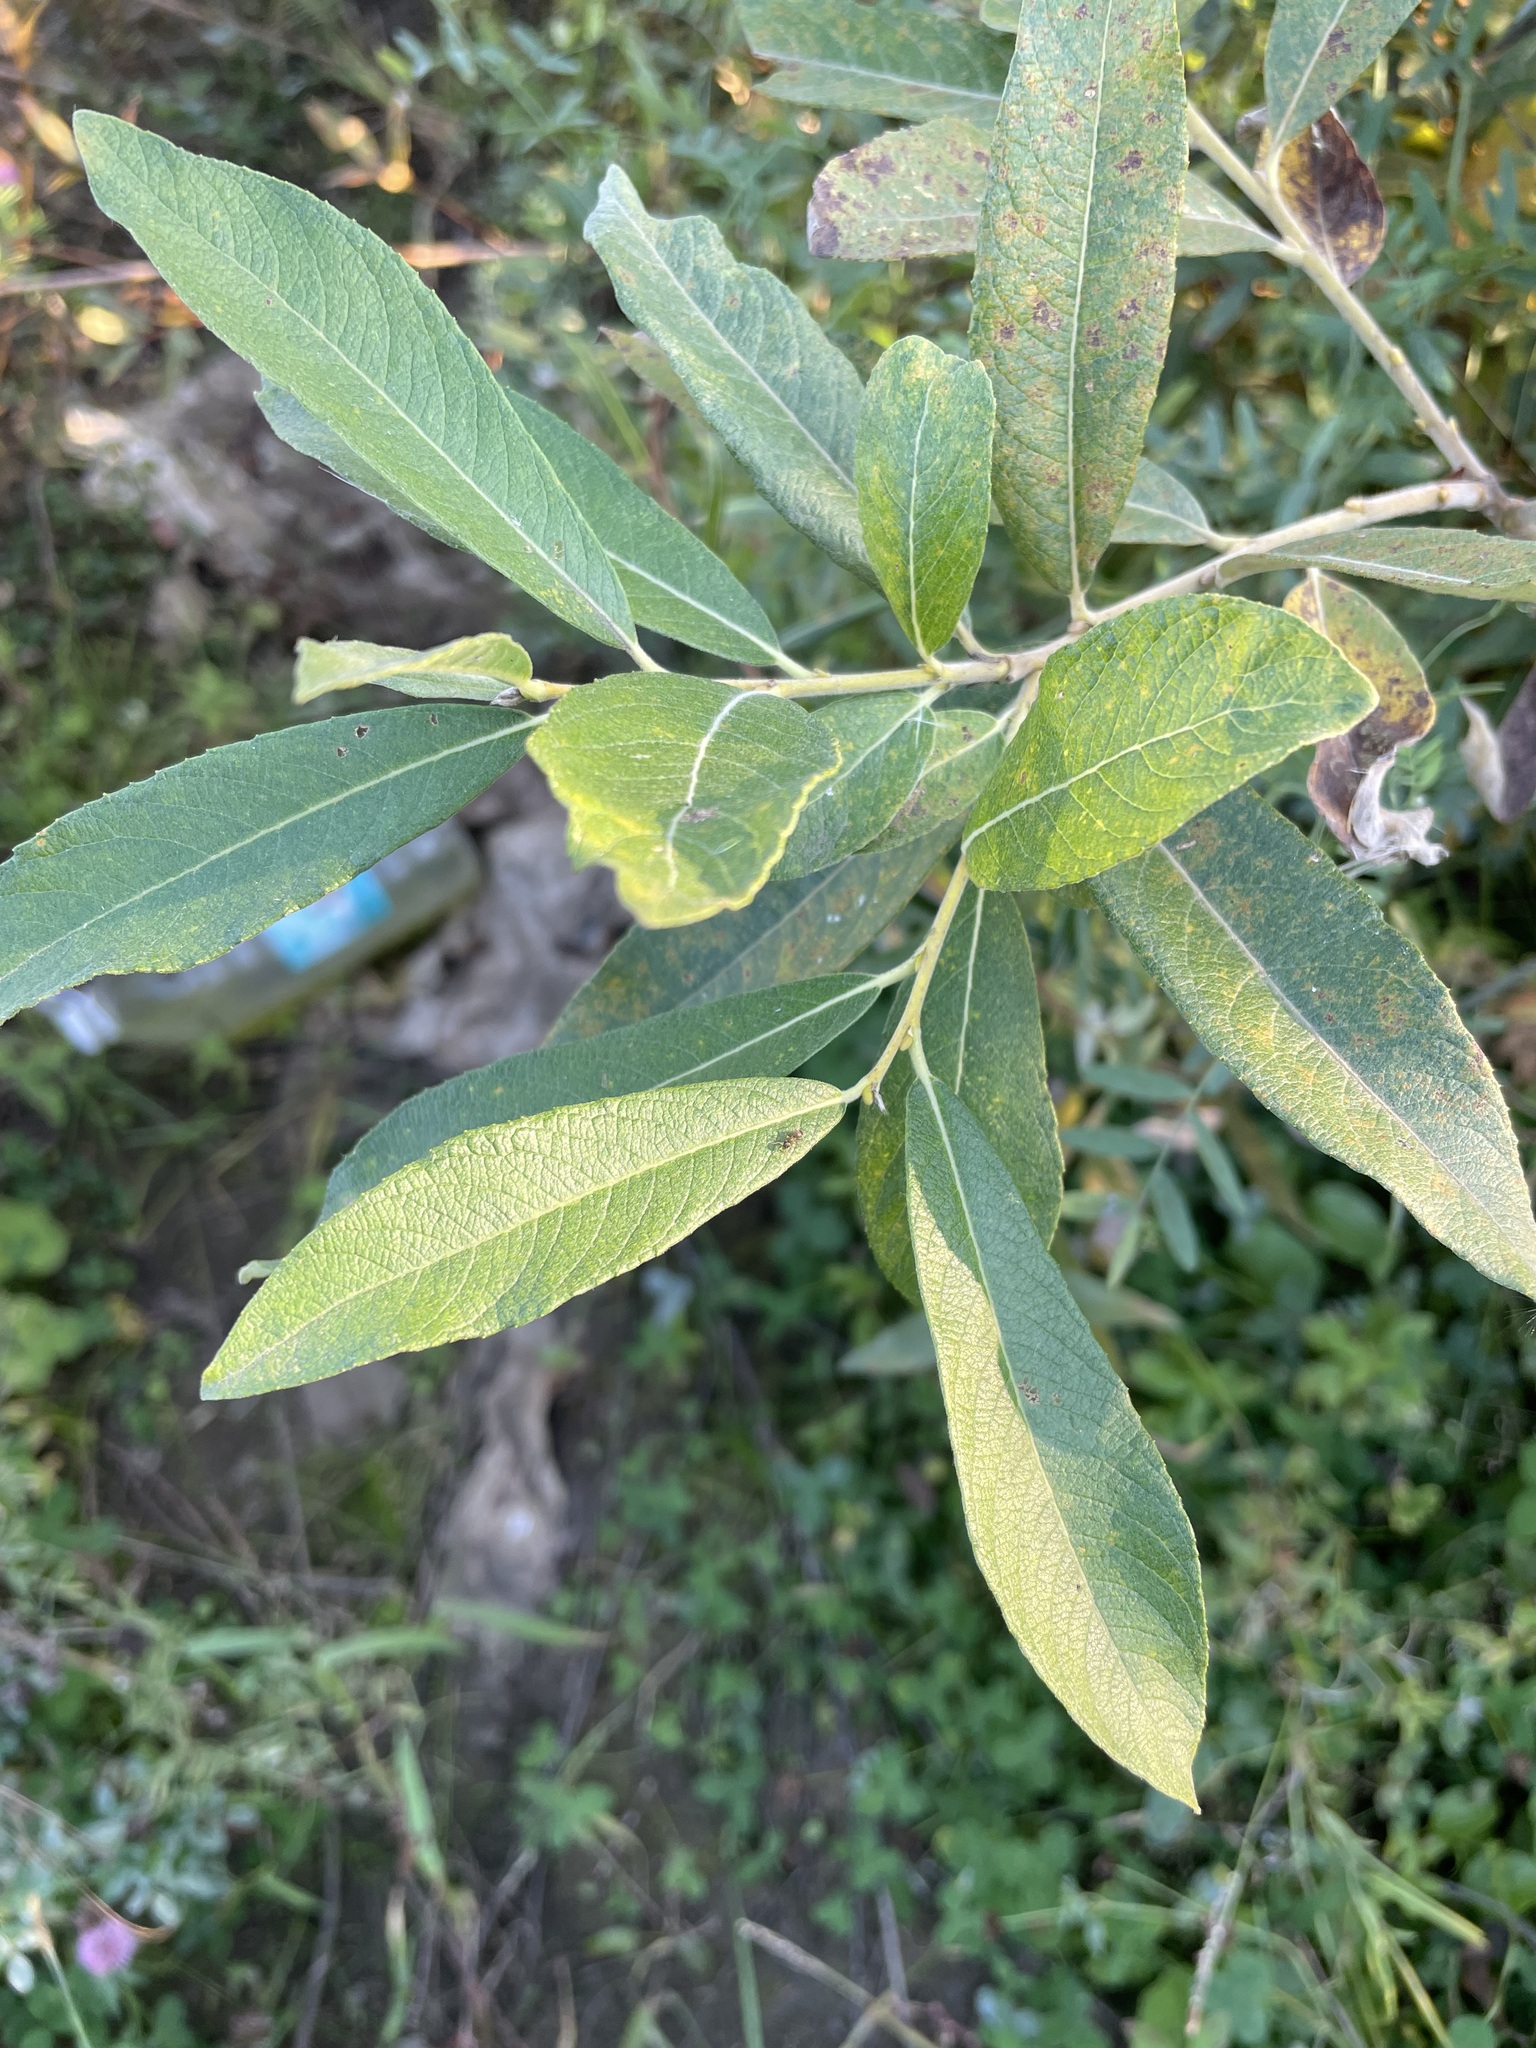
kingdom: Plantae
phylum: Tracheophyta
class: Magnoliopsida
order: Malpighiales
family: Salicaceae
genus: Salix
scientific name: Salix cinerea
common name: Common sallow
